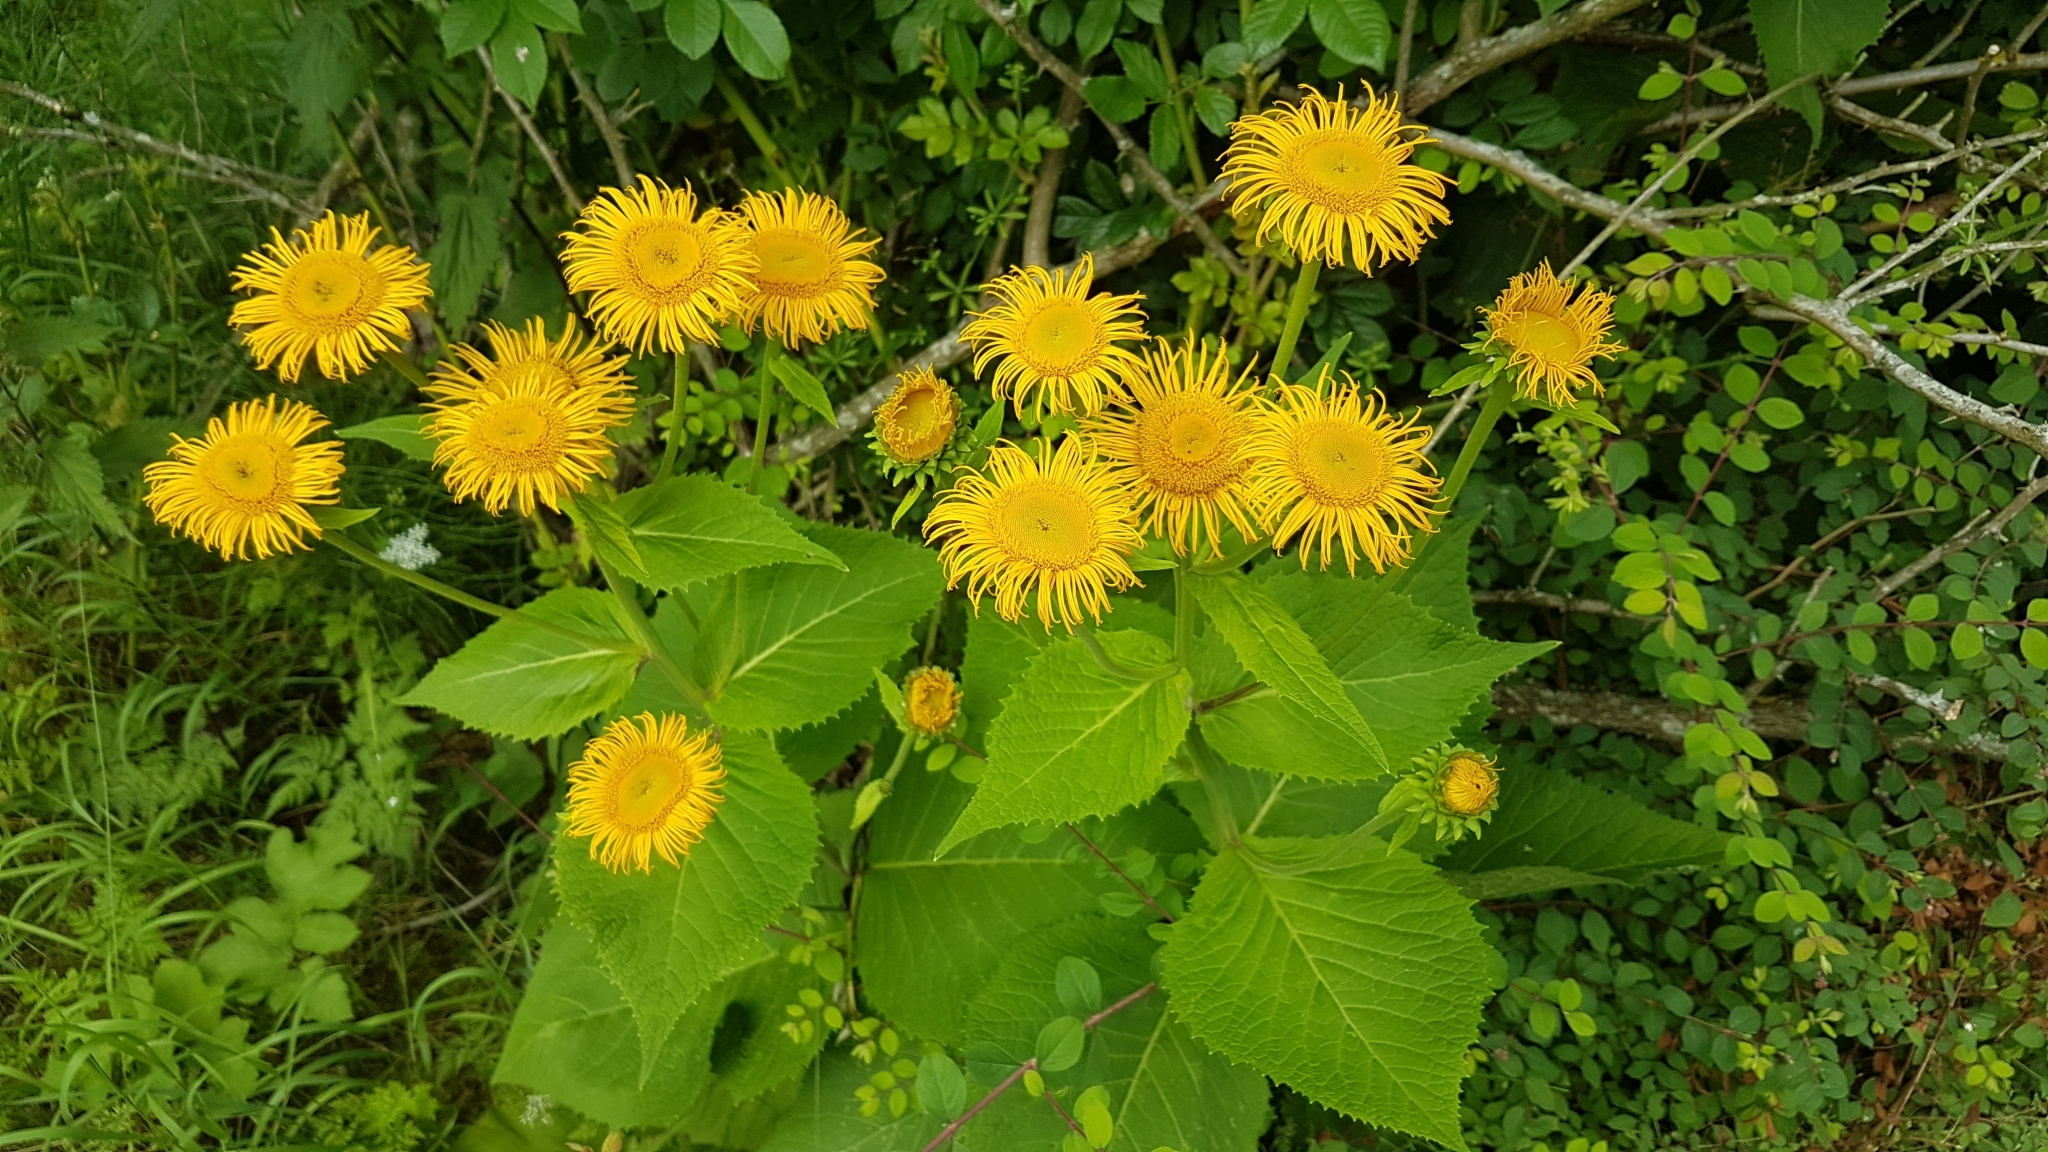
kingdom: Plantae
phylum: Tracheophyta
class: Magnoliopsida
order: Asterales
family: Asteraceae
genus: Telekia
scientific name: Telekia speciosa
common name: Yellow oxeye
